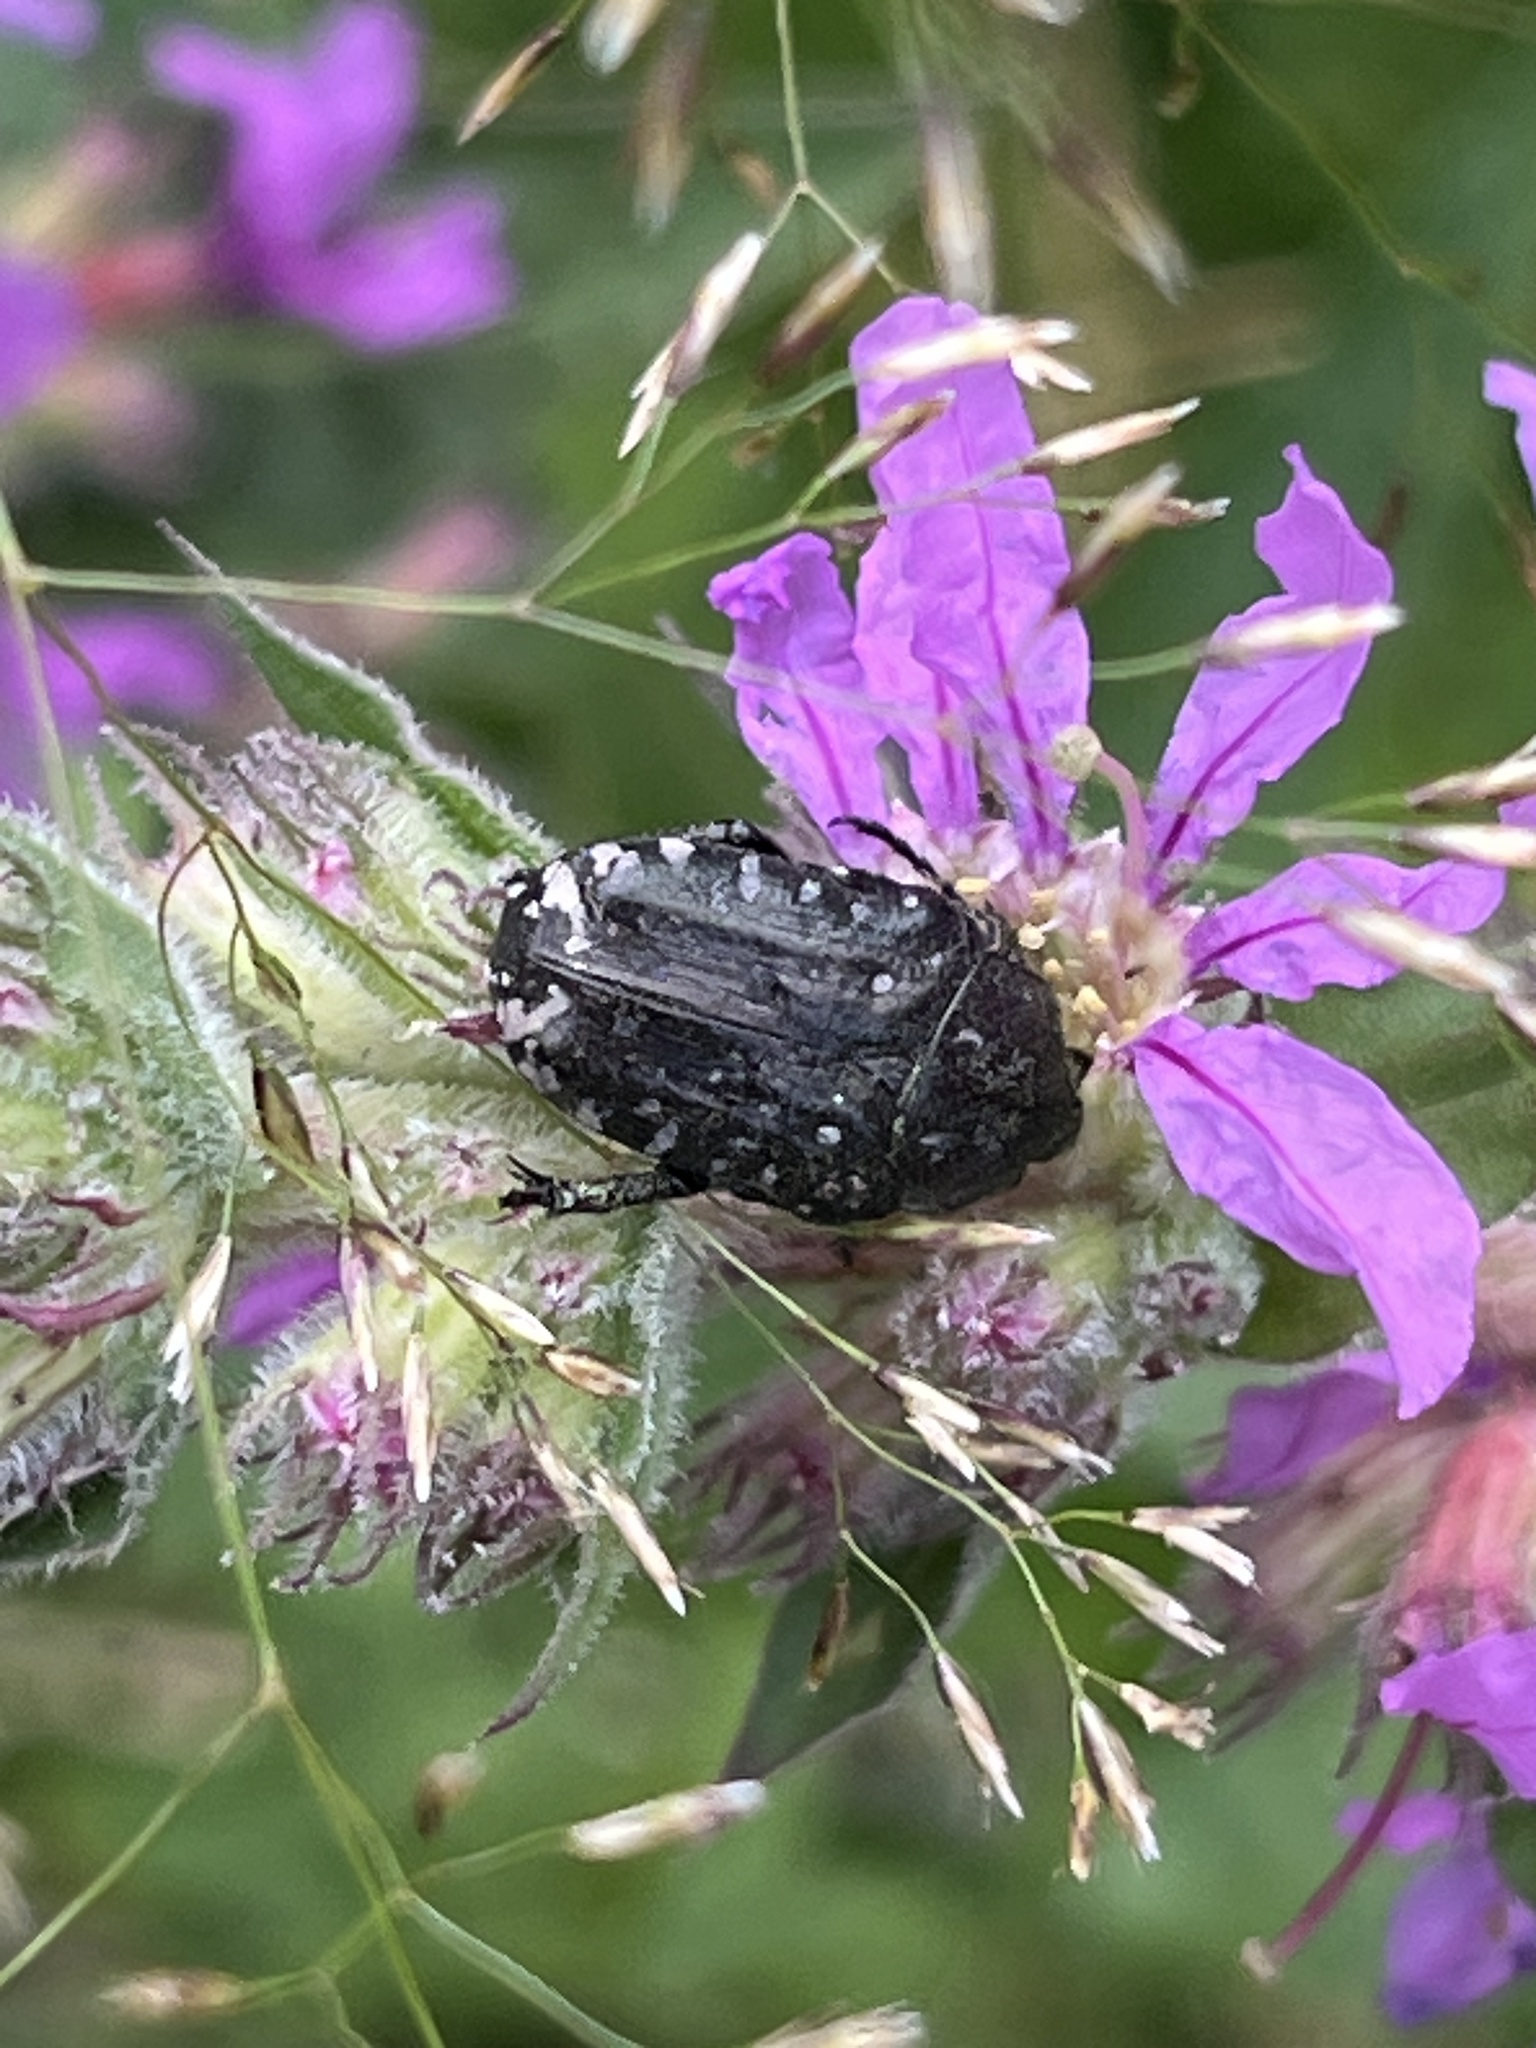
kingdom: Animalia
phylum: Arthropoda
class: Insecta
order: Coleoptera
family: Scarabaeidae
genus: Oxythyrea
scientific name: Oxythyrea funesta
